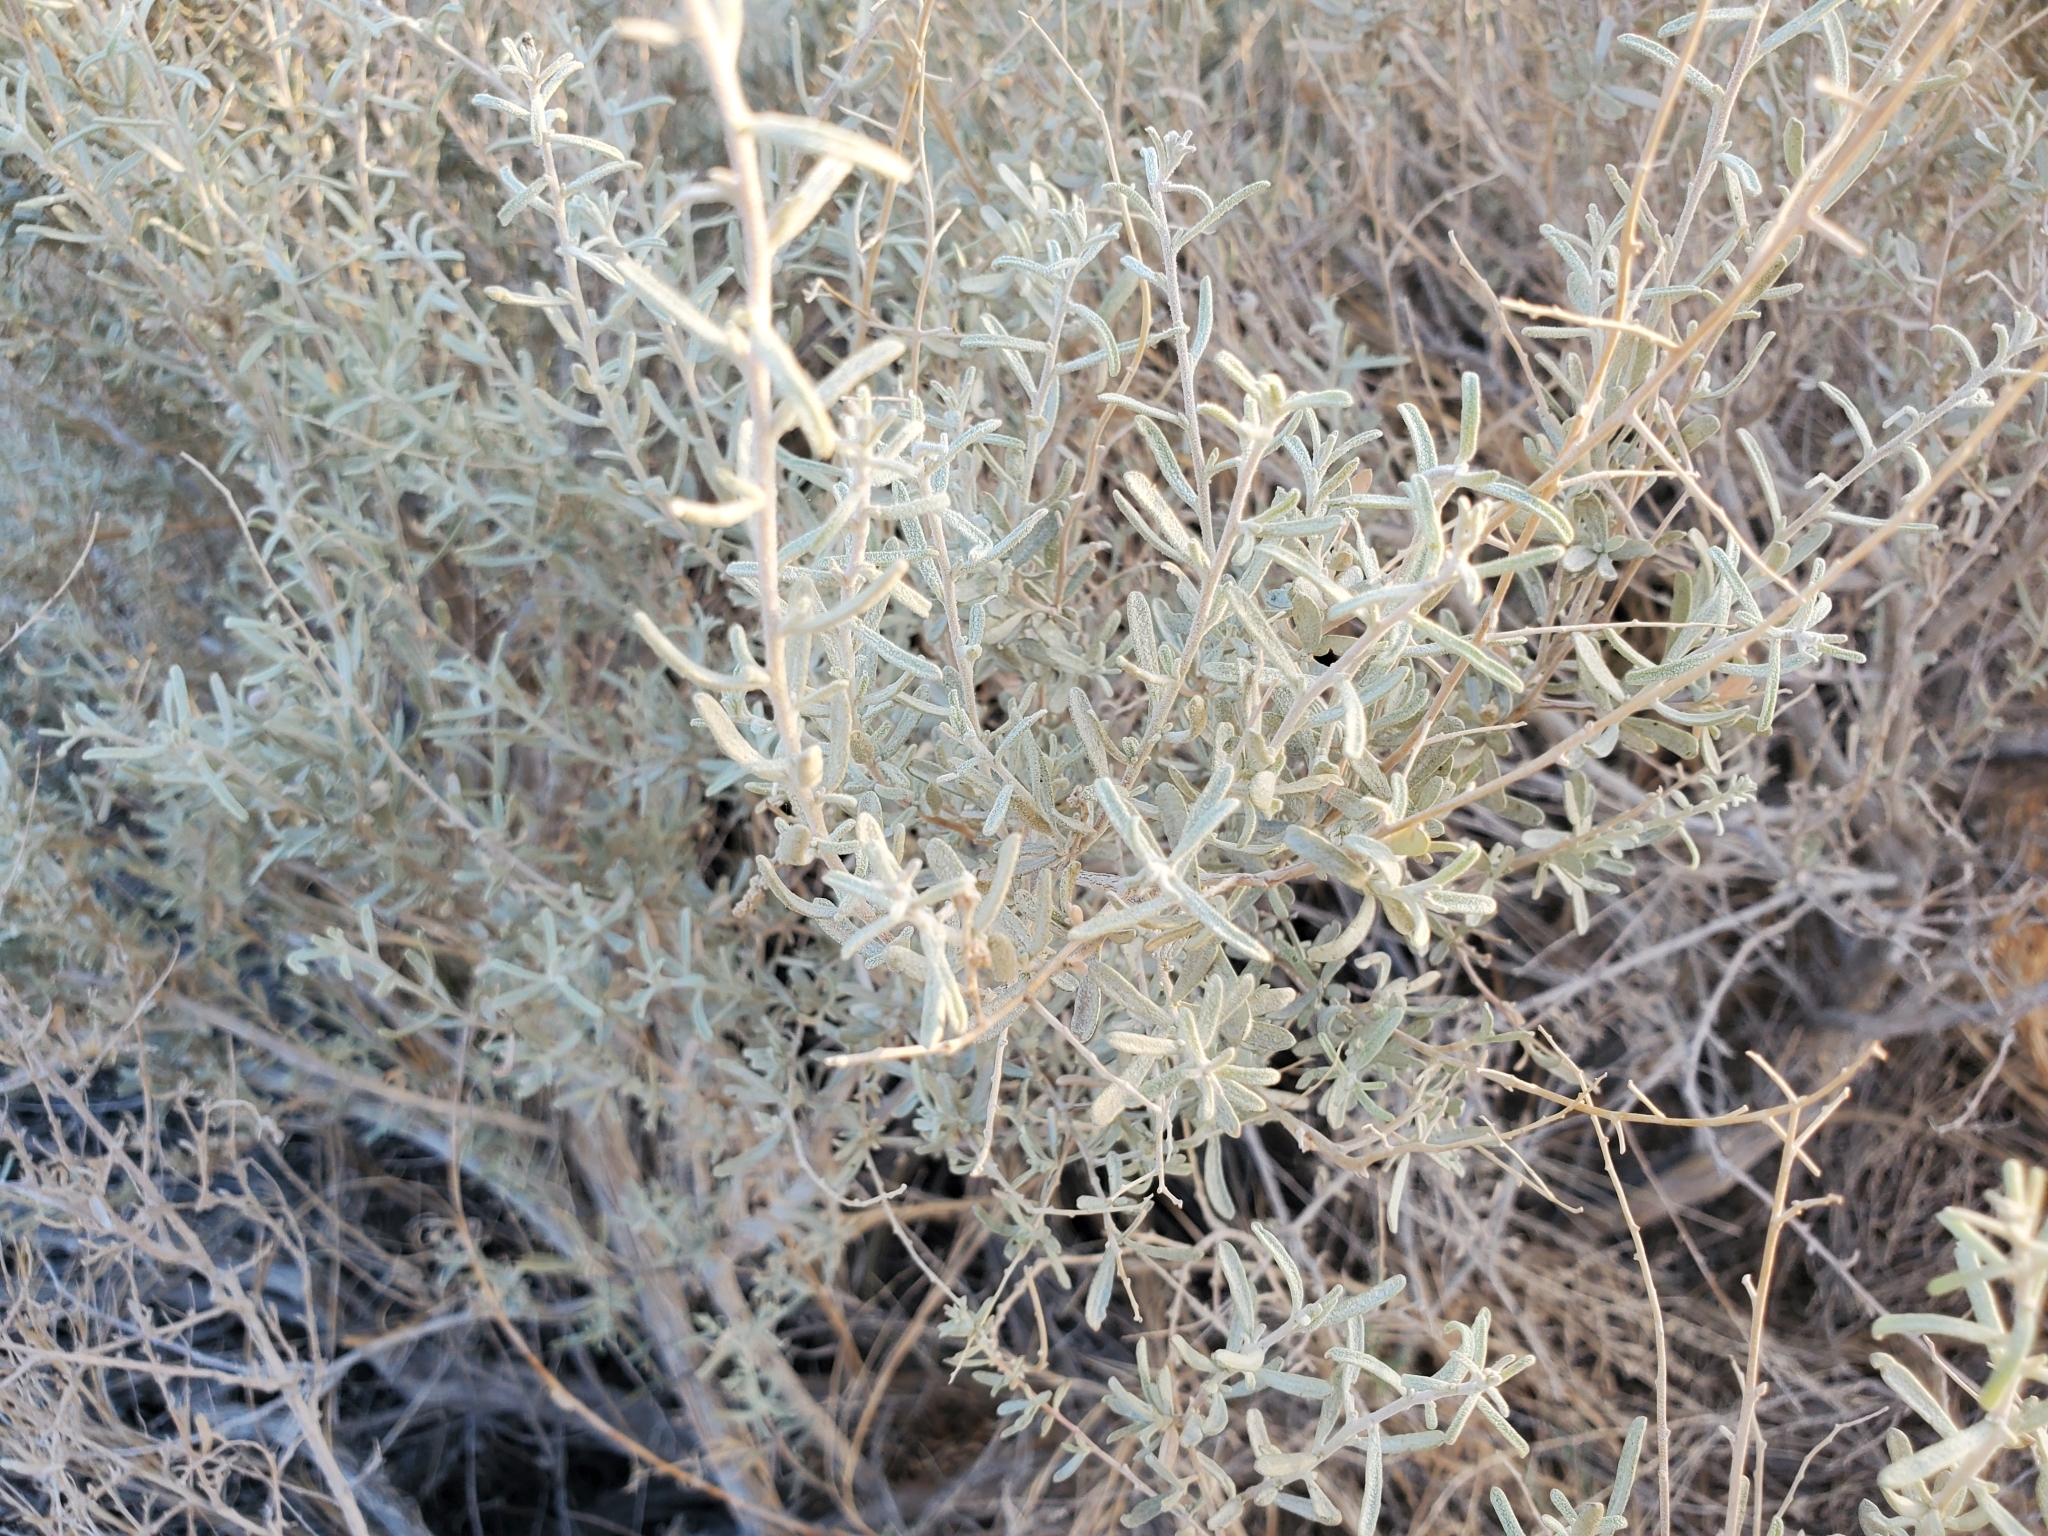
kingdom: Plantae
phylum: Tracheophyta
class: Magnoliopsida
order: Caryophyllales
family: Amaranthaceae
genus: Atriplex
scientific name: Atriplex canescens
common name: Four-wing saltbush
